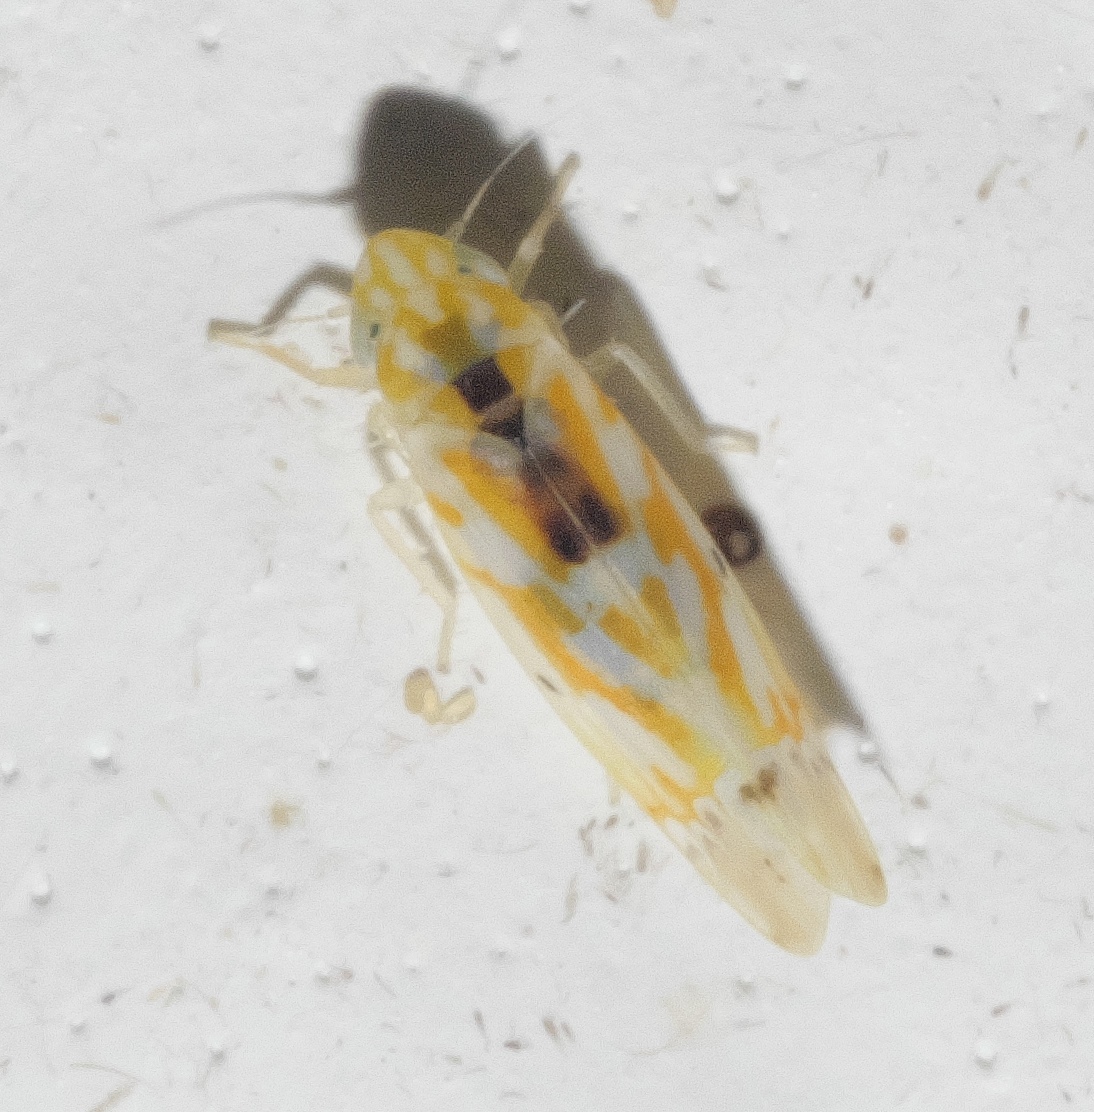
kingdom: Animalia
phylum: Arthropoda
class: Insecta
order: Hemiptera
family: Cicadellidae
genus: Erythroneura
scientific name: Erythroneura octonotata
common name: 8-spotted leafhopper
